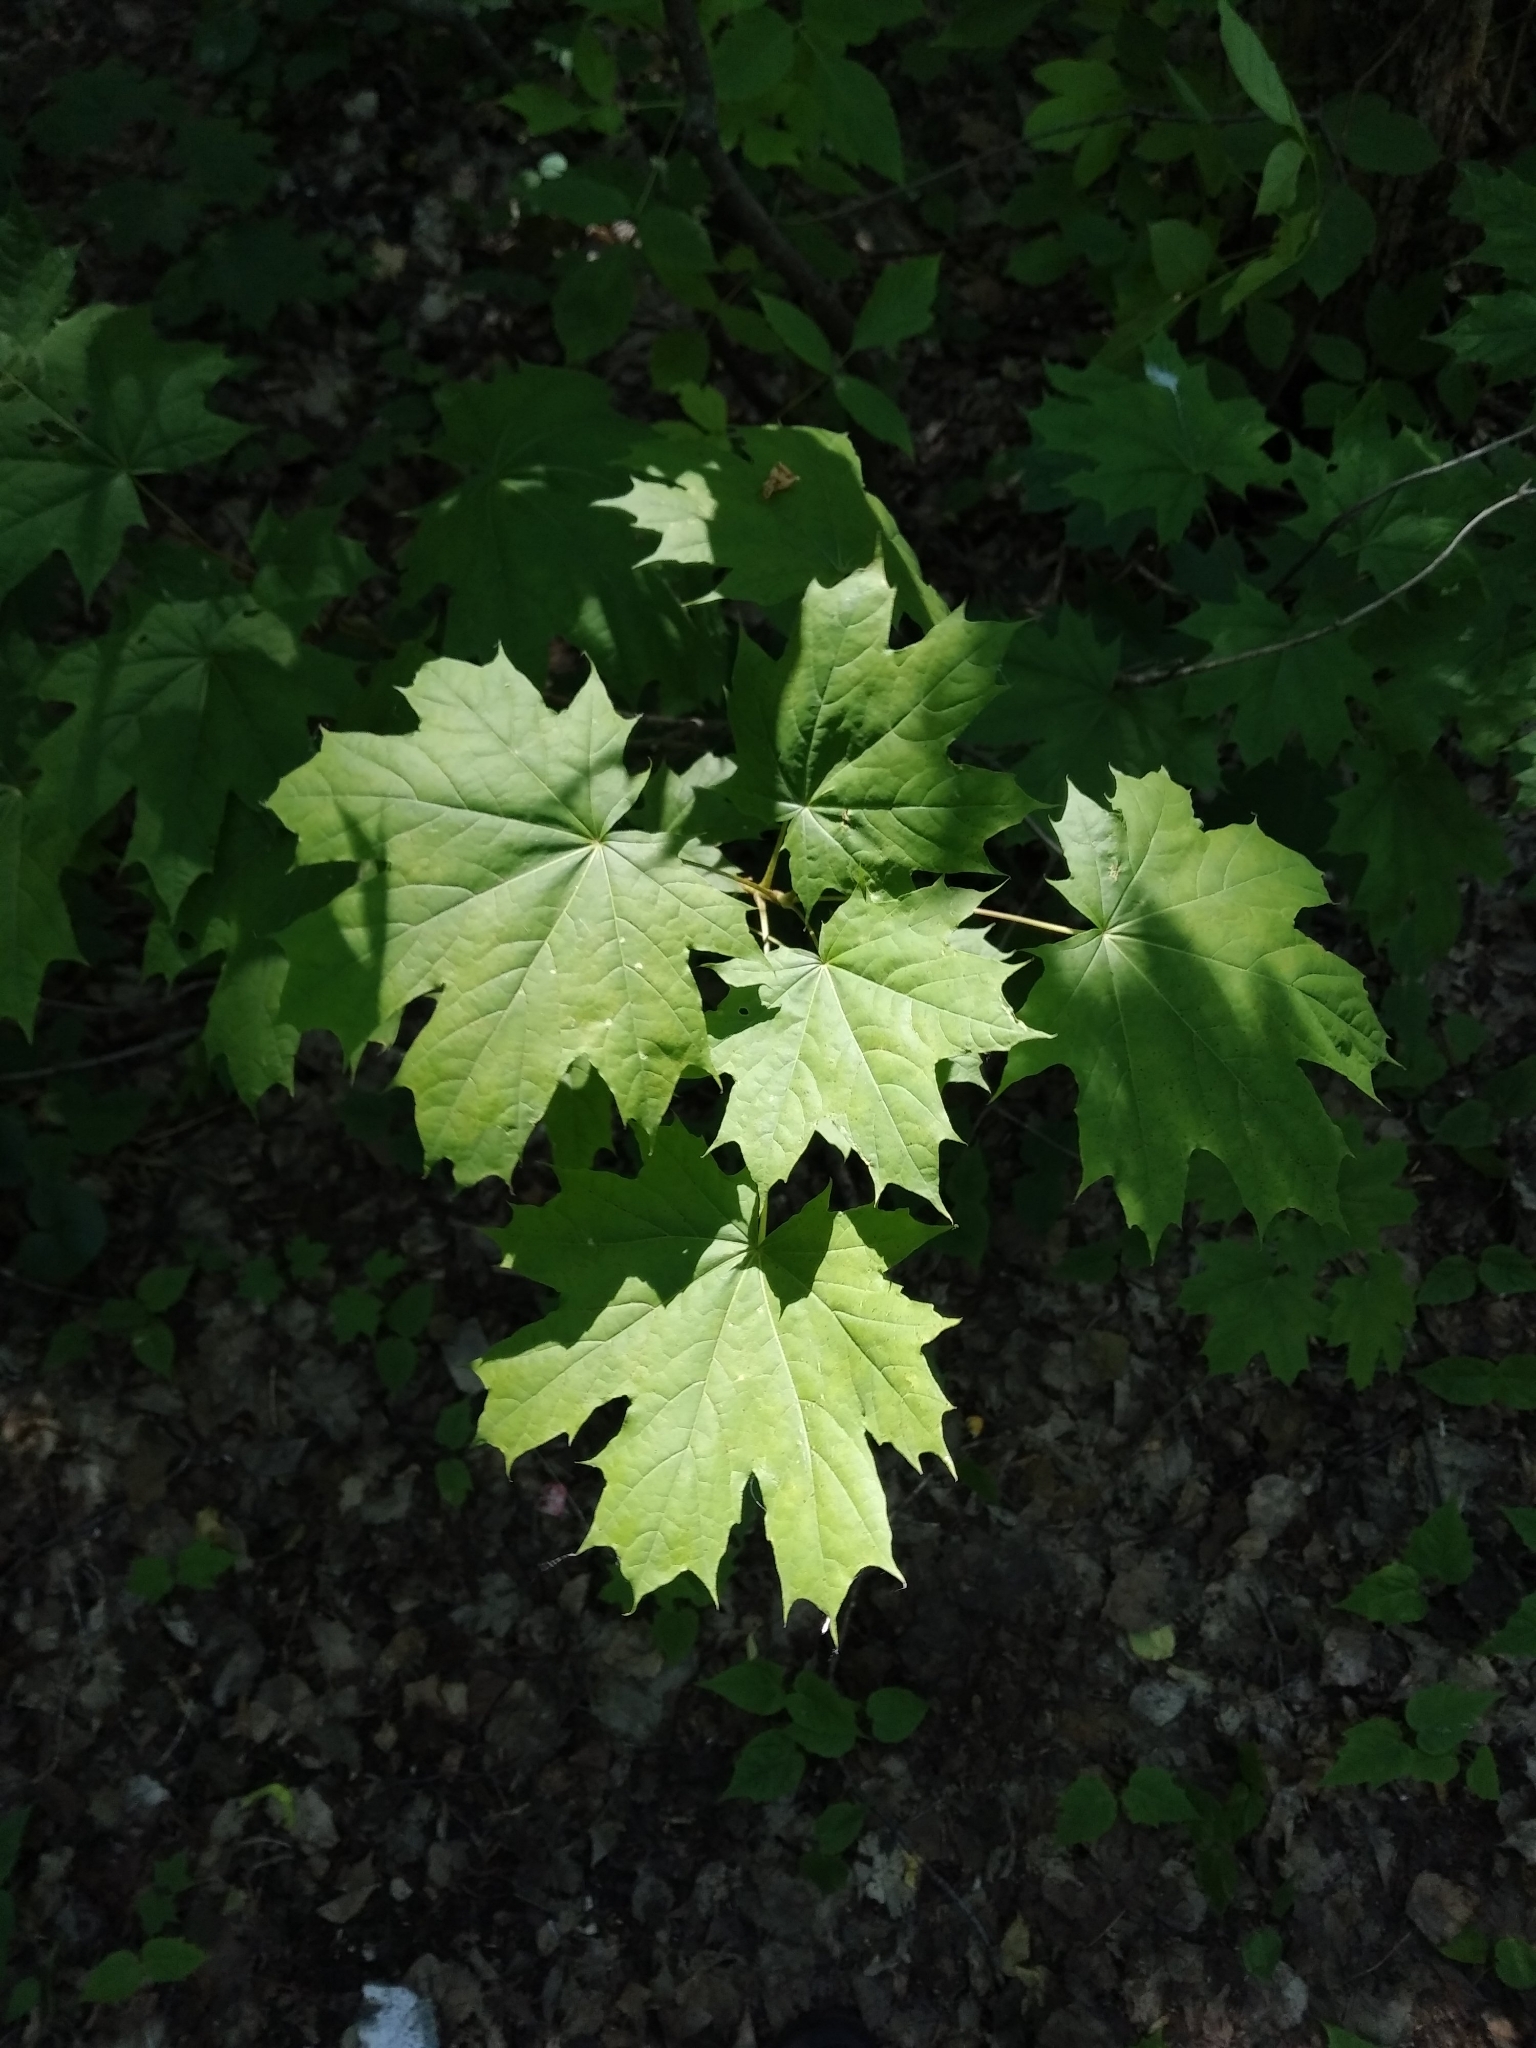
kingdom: Plantae
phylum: Tracheophyta
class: Magnoliopsida
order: Sapindales
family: Sapindaceae
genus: Acer
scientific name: Acer platanoides
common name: Norway maple
